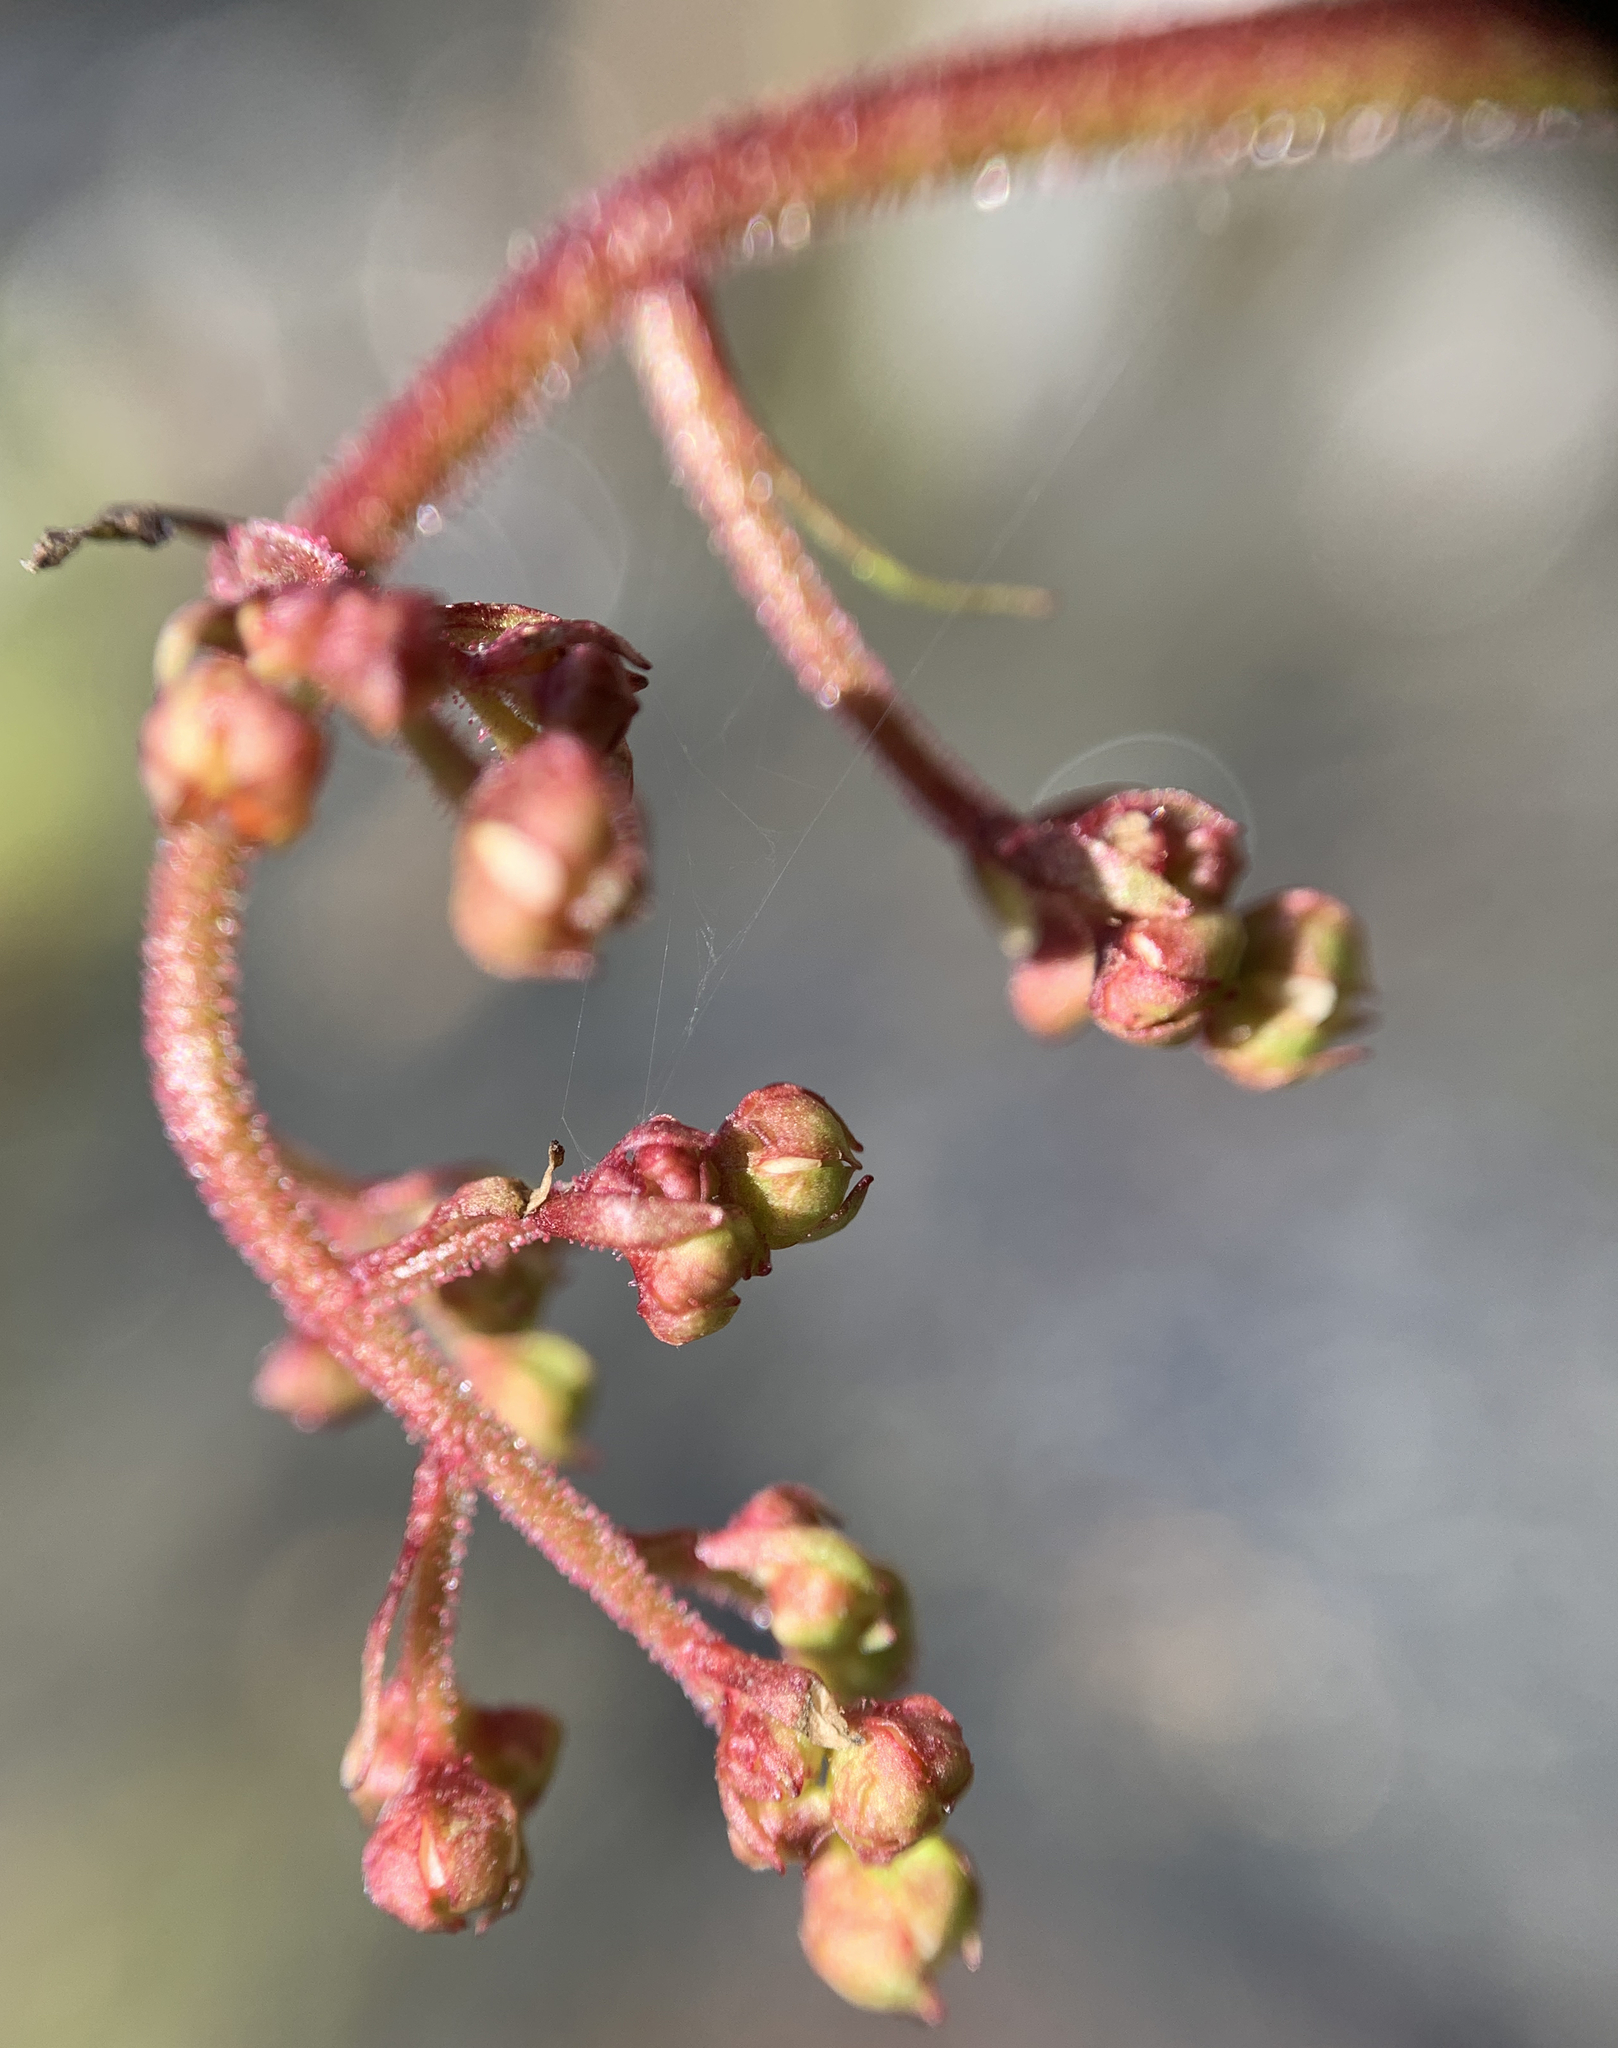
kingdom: Plantae
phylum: Tracheophyta
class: Magnoliopsida
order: Saxifragales
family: Saxifragaceae
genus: Micranthes
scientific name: Micranthes odontoloma
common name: Brook saxifrage
